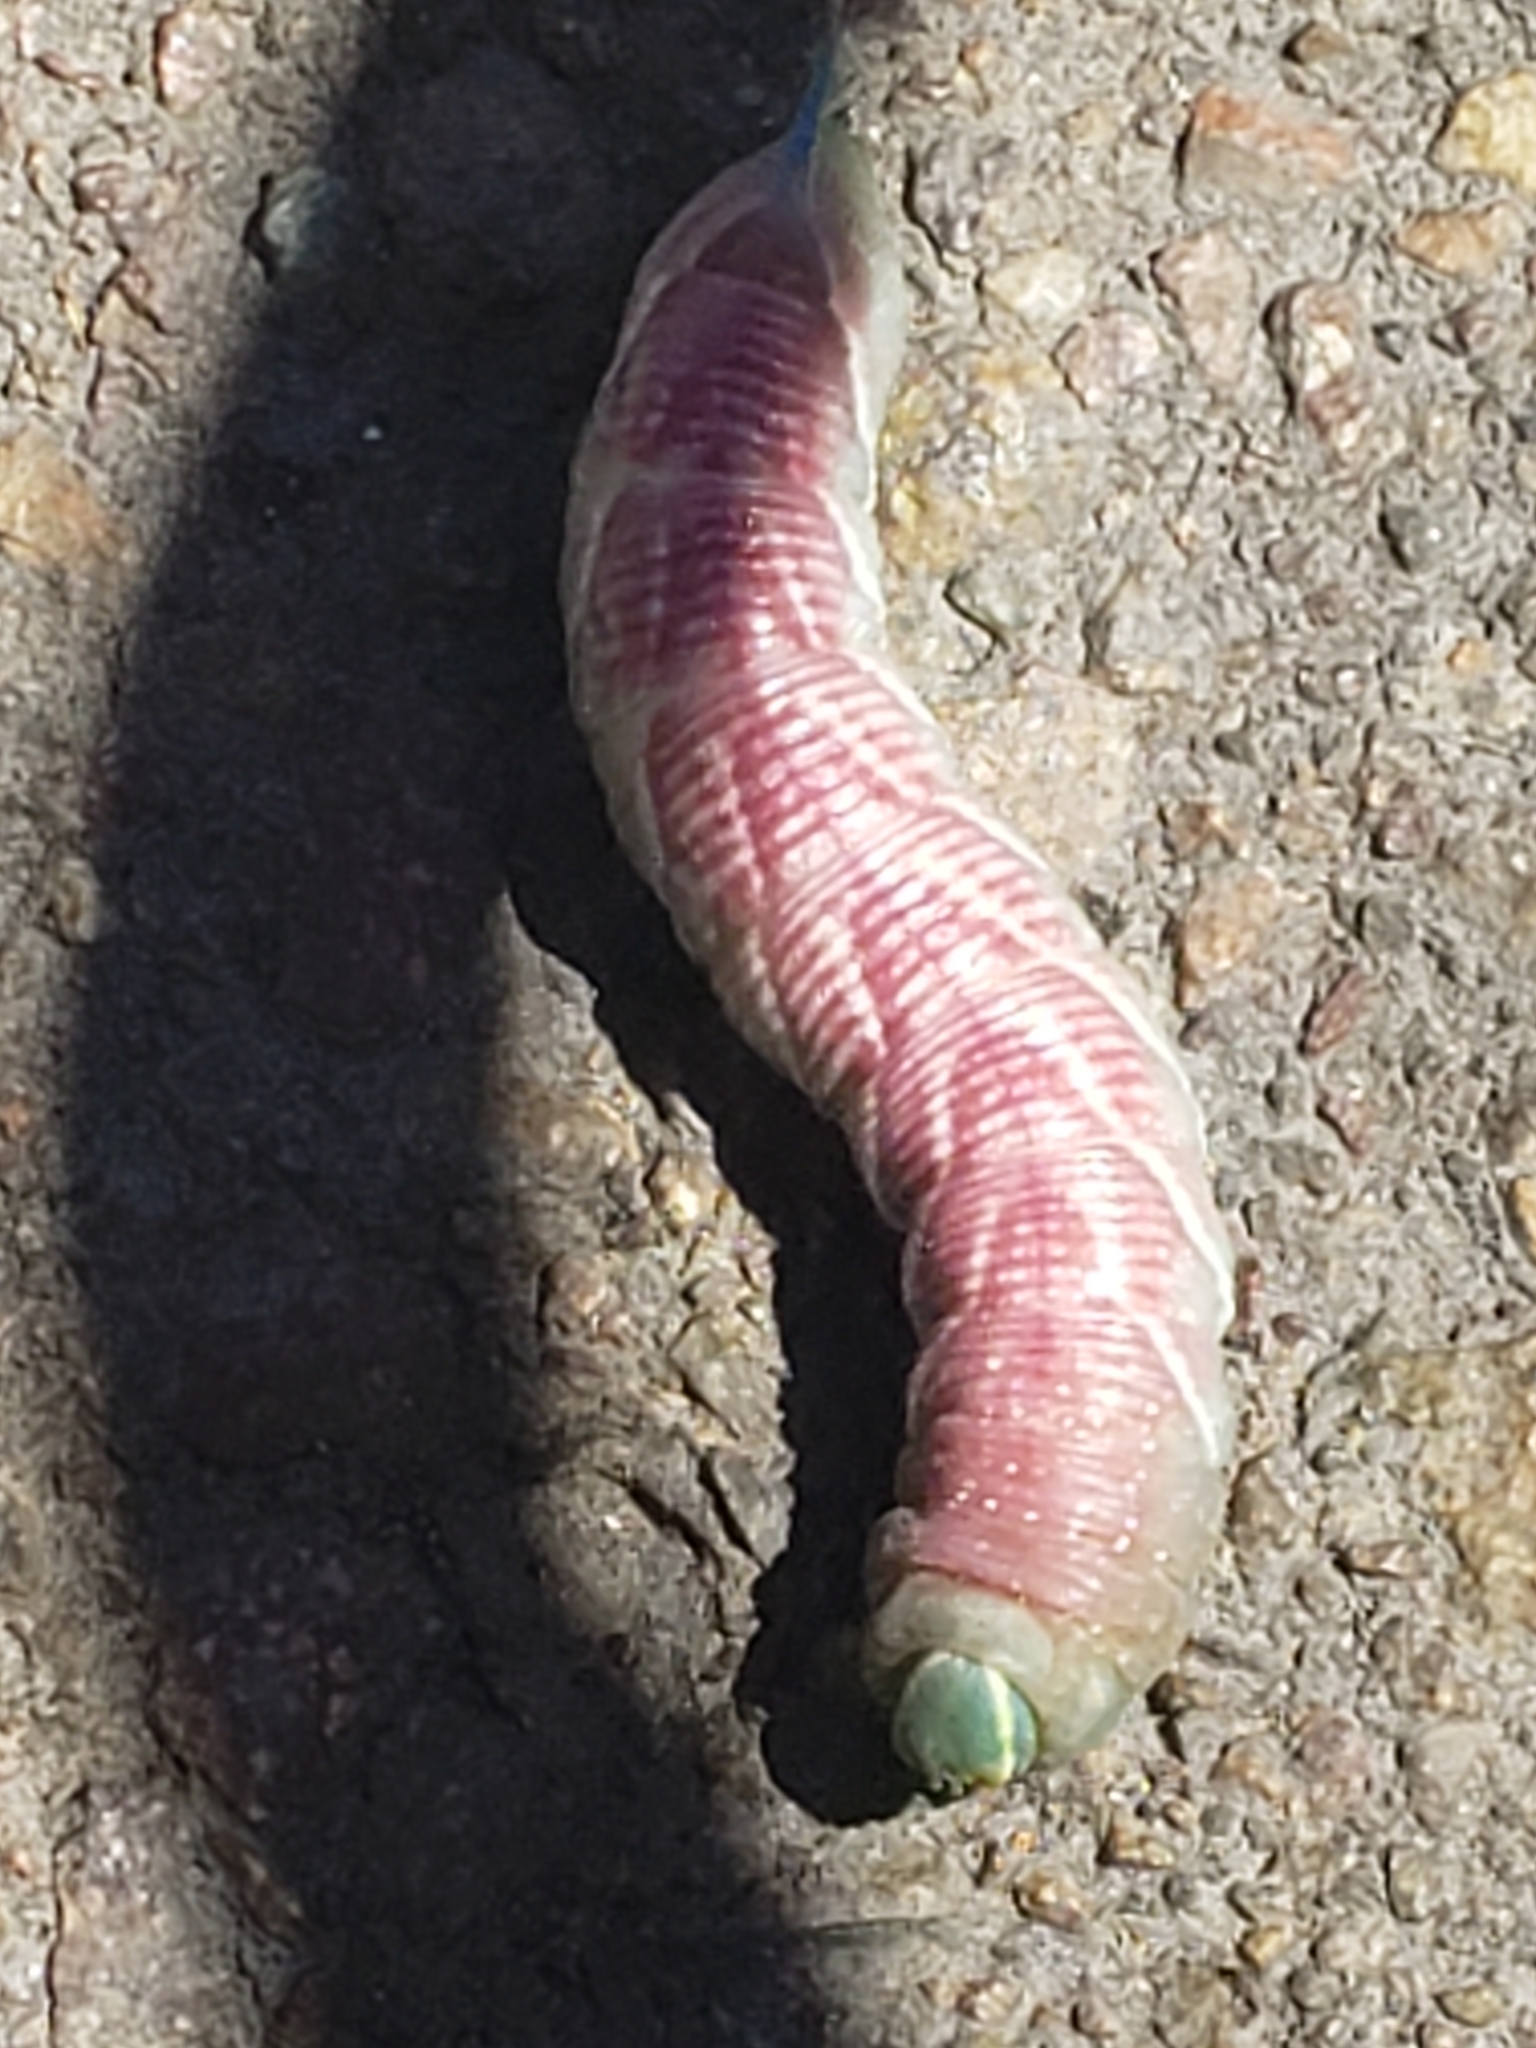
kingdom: Animalia
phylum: Arthropoda
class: Insecta
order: Lepidoptera
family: Sphingidae
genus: Sphinx
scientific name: Sphinx chersis
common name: Great ash sphinx
